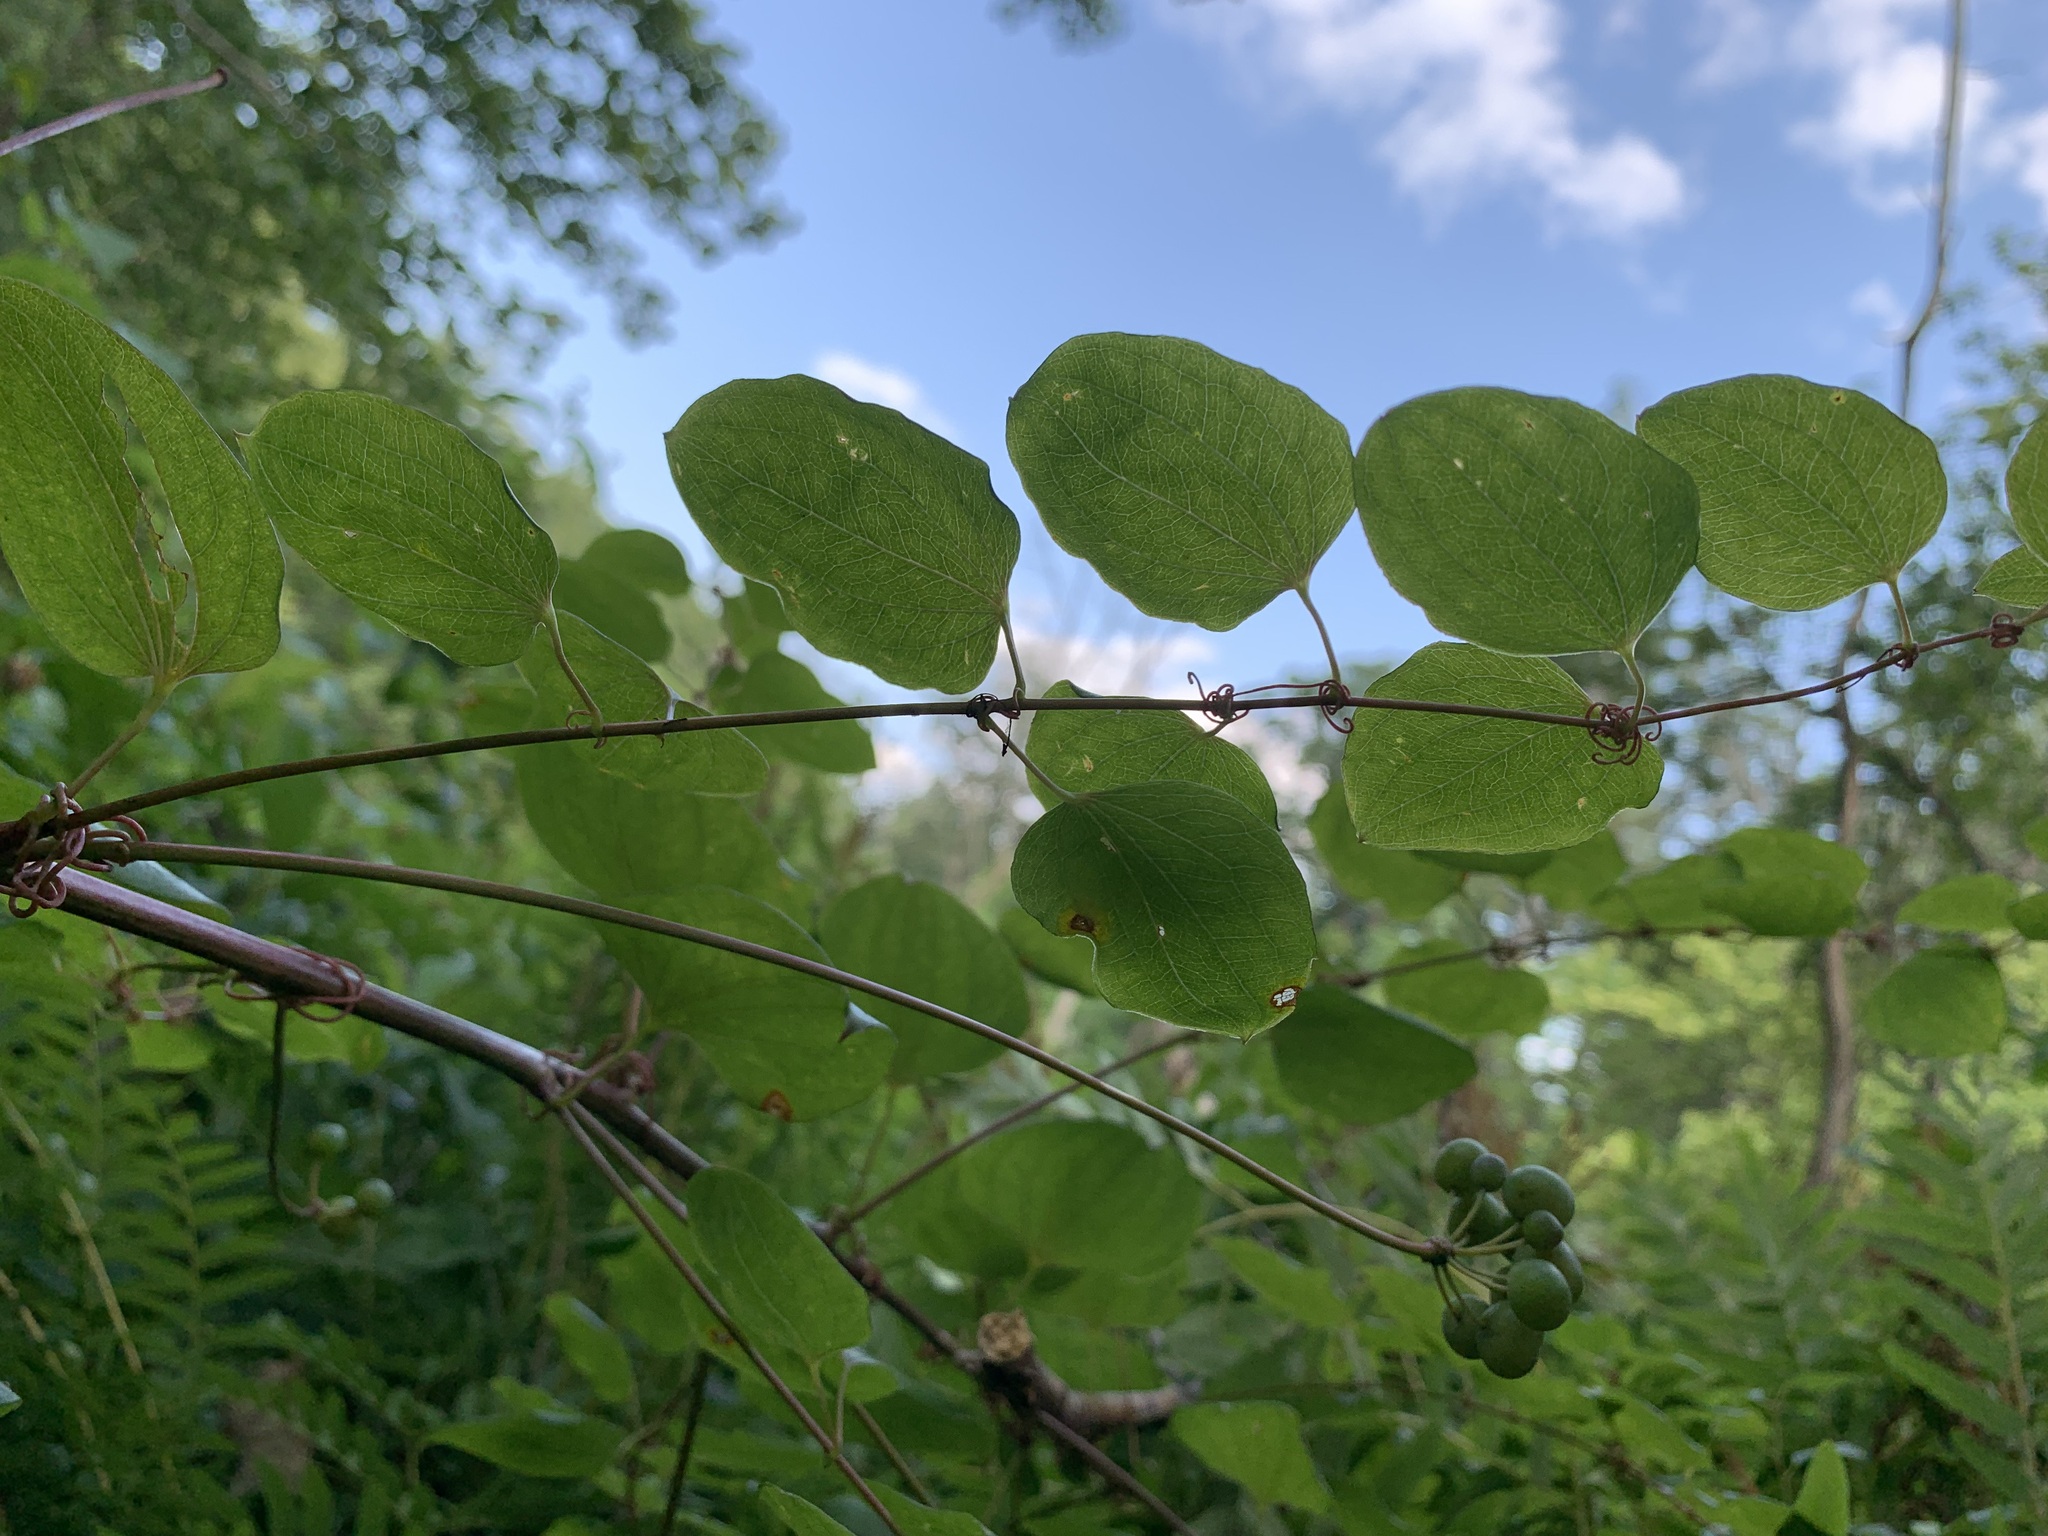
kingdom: Plantae
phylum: Tracheophyta
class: Liliopsida
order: Liliales
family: Smilacaceae
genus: Smilax
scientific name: Smilax herbacea
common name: Jacob's-ladder
